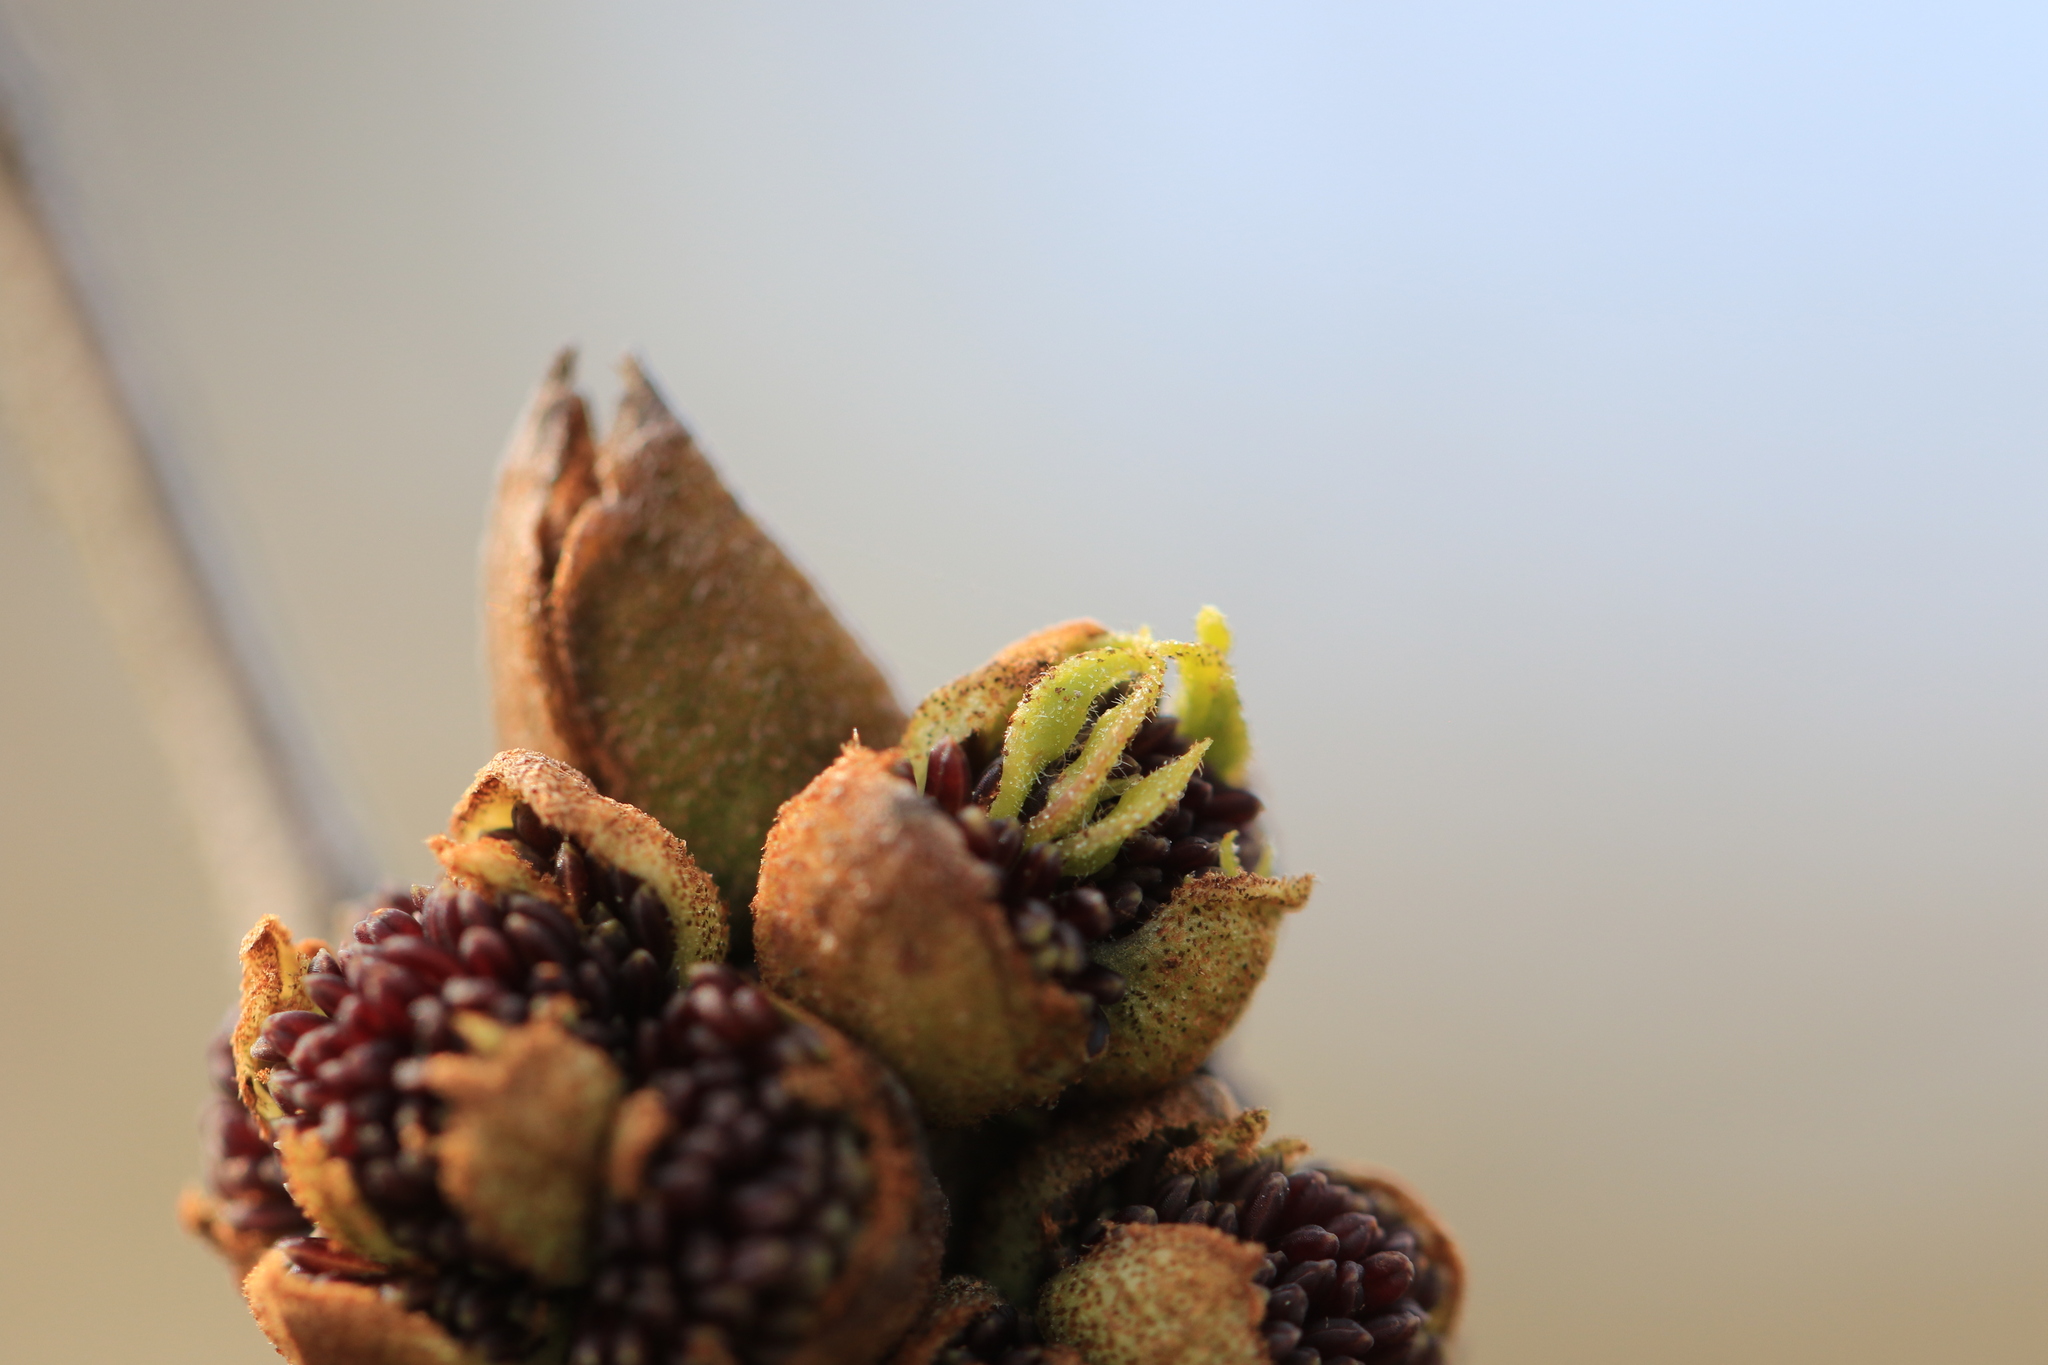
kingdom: Plantae
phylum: Tracheophyta
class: Magnoliopsida
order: Lamiales
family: Oleaceae
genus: Fraxinus
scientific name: Fraxinus latifolia
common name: Oregon ash
